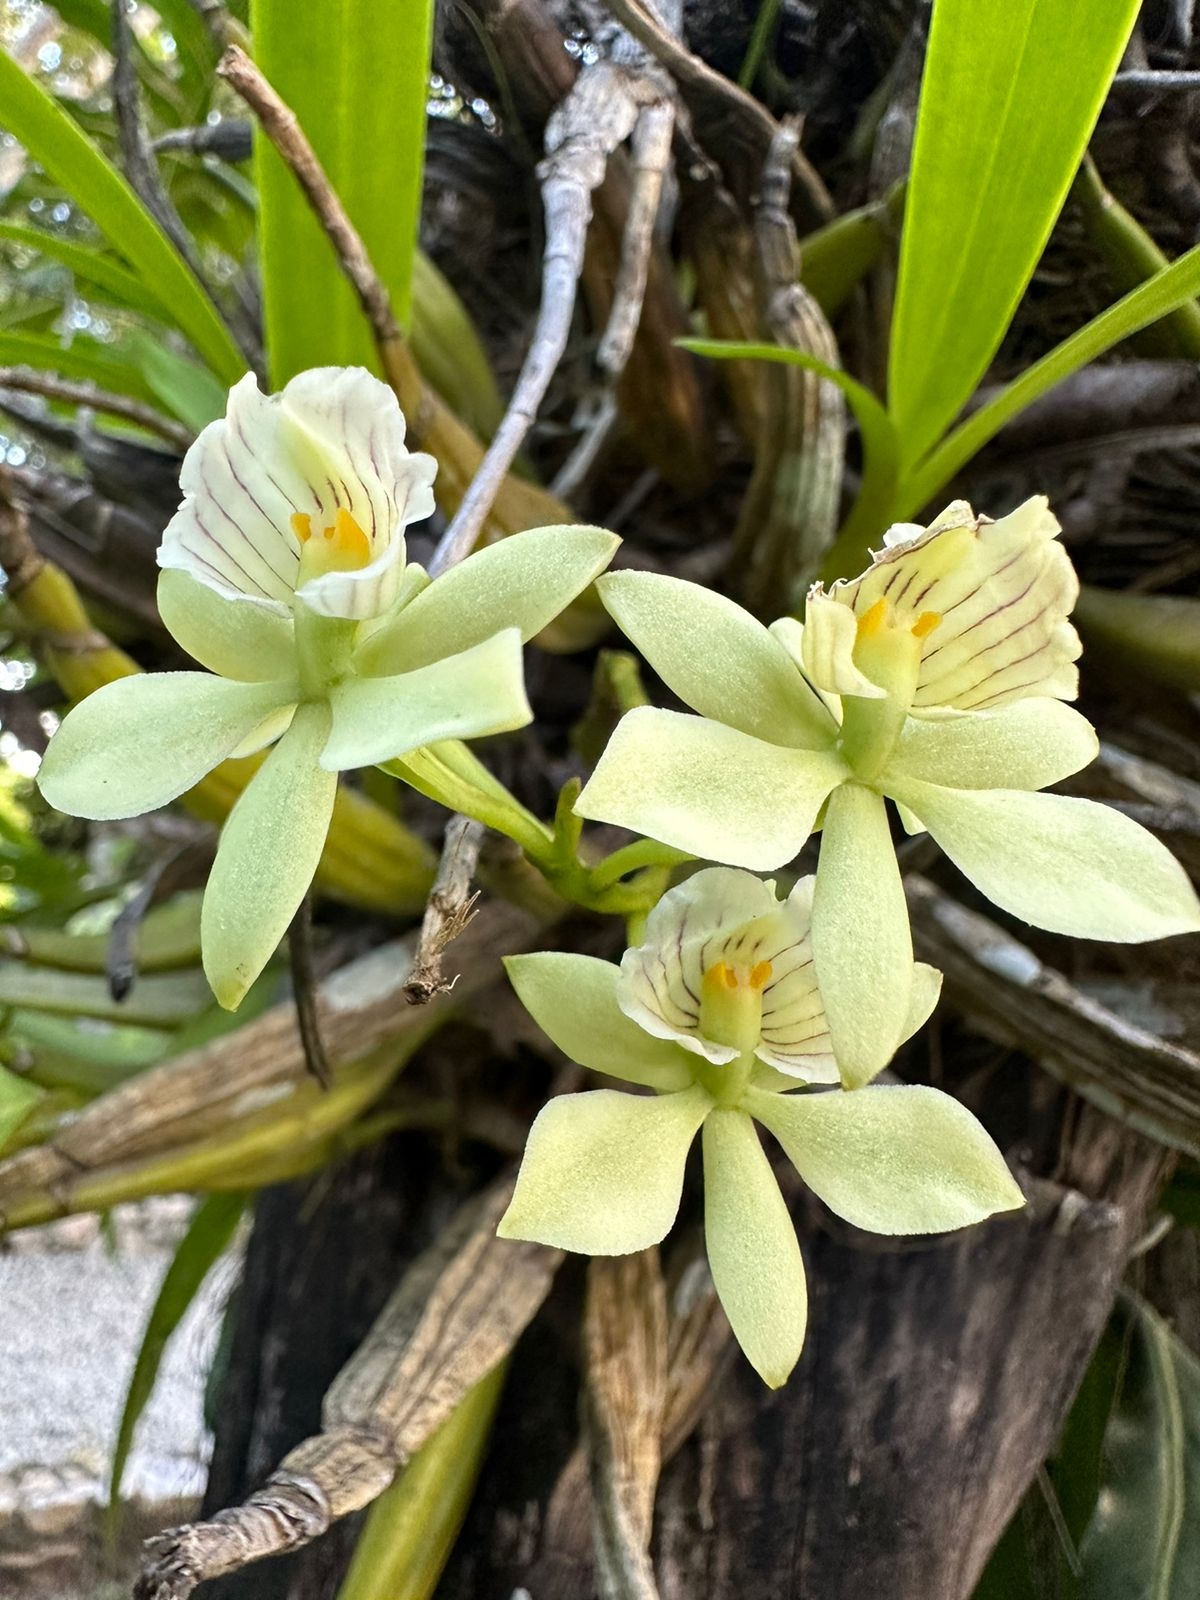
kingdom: Plantae
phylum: Tracheophyta
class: Liliopsida
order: Asparagales
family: Orchidaceae
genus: Prosthechea
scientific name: Prosthechea radiata
